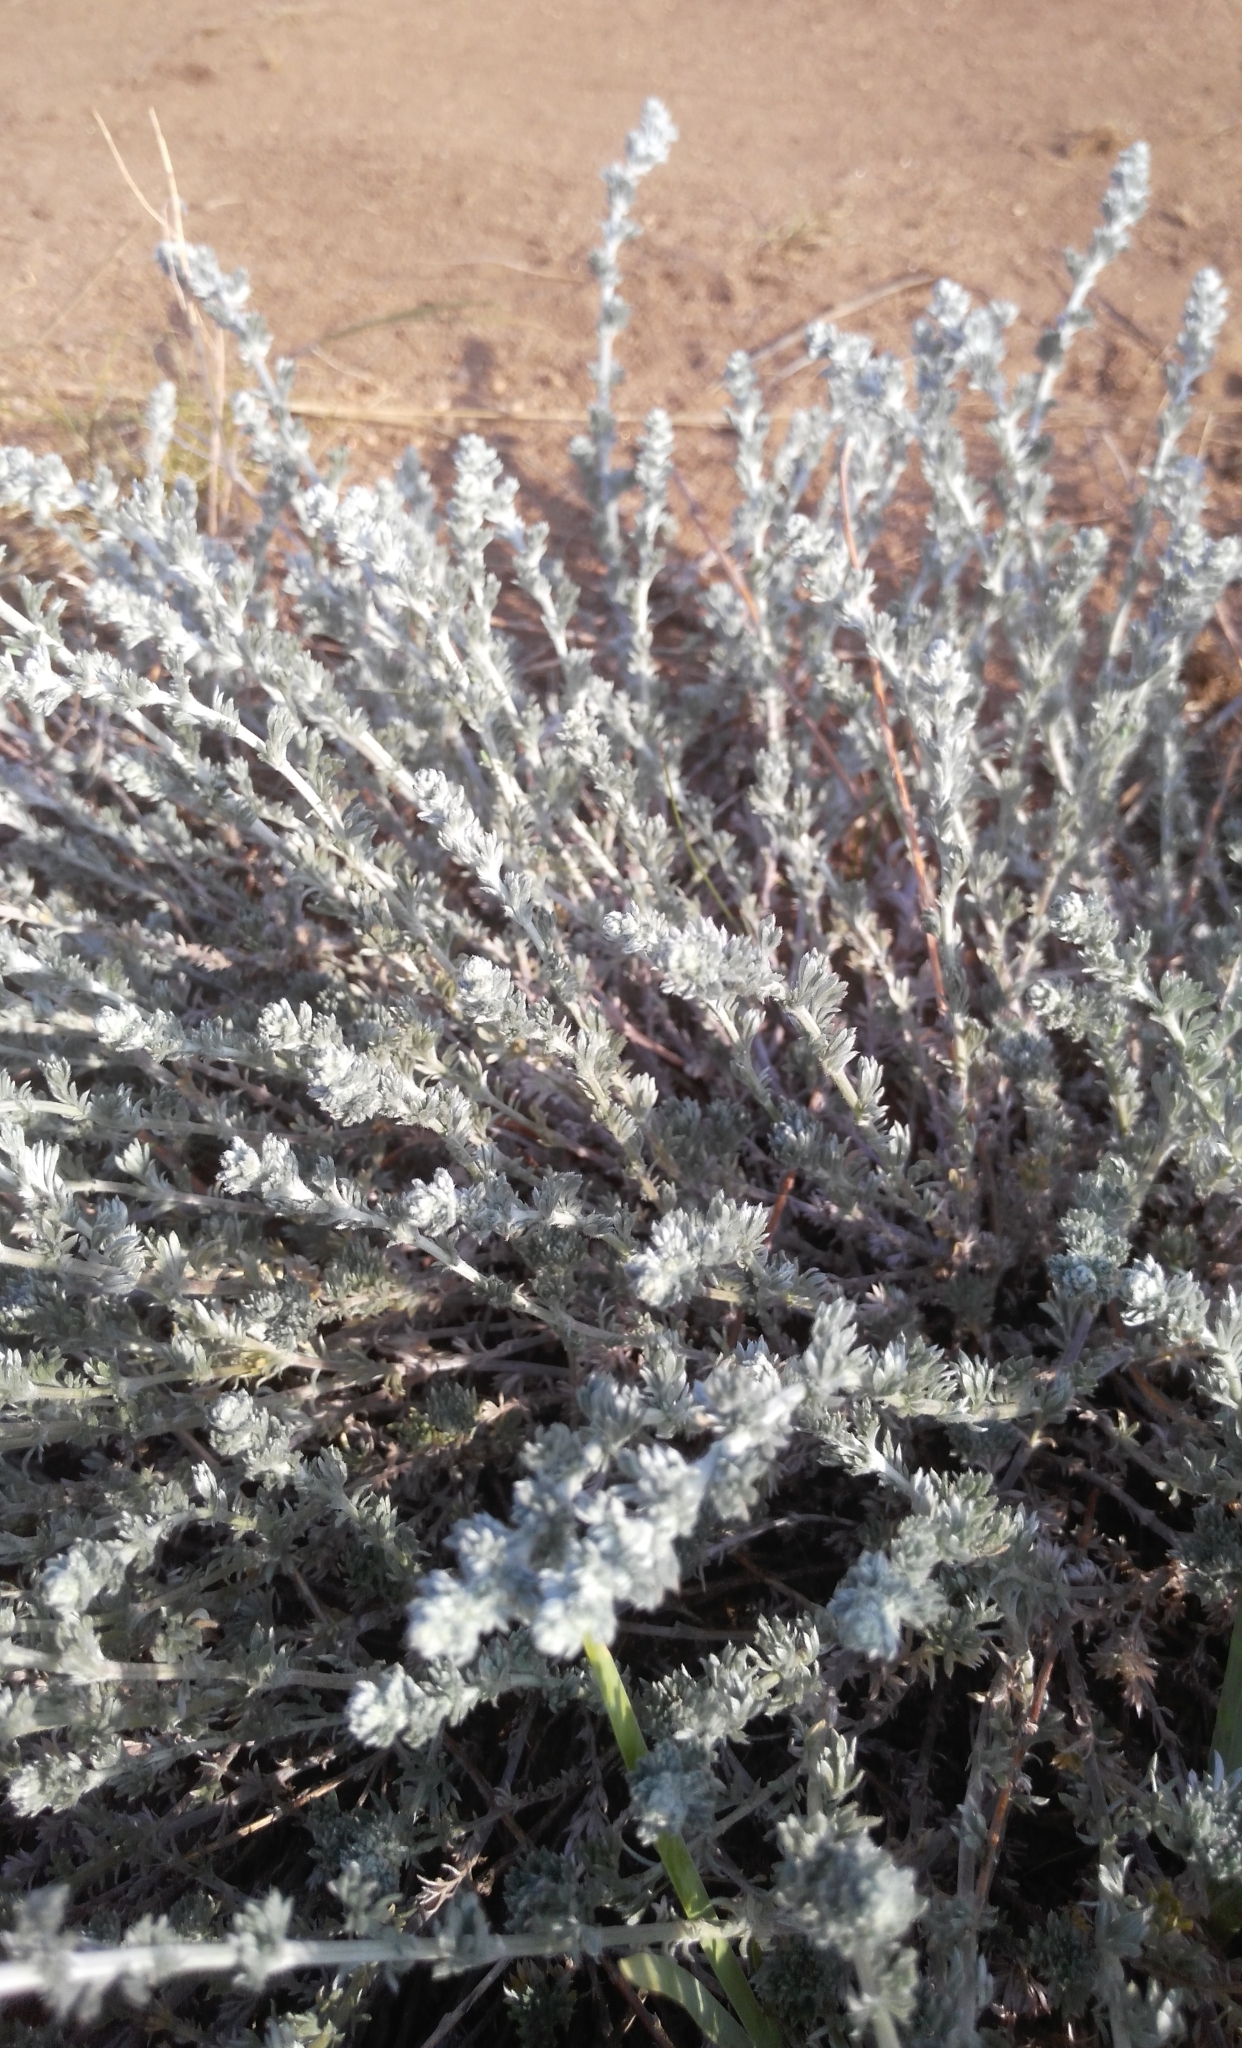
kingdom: Plantae
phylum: Tracheophyta
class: Magnoliopsida
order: Asterales
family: Asteraceae
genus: Artemisia
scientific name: Artemisia frigida
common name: Prairie sagewort
